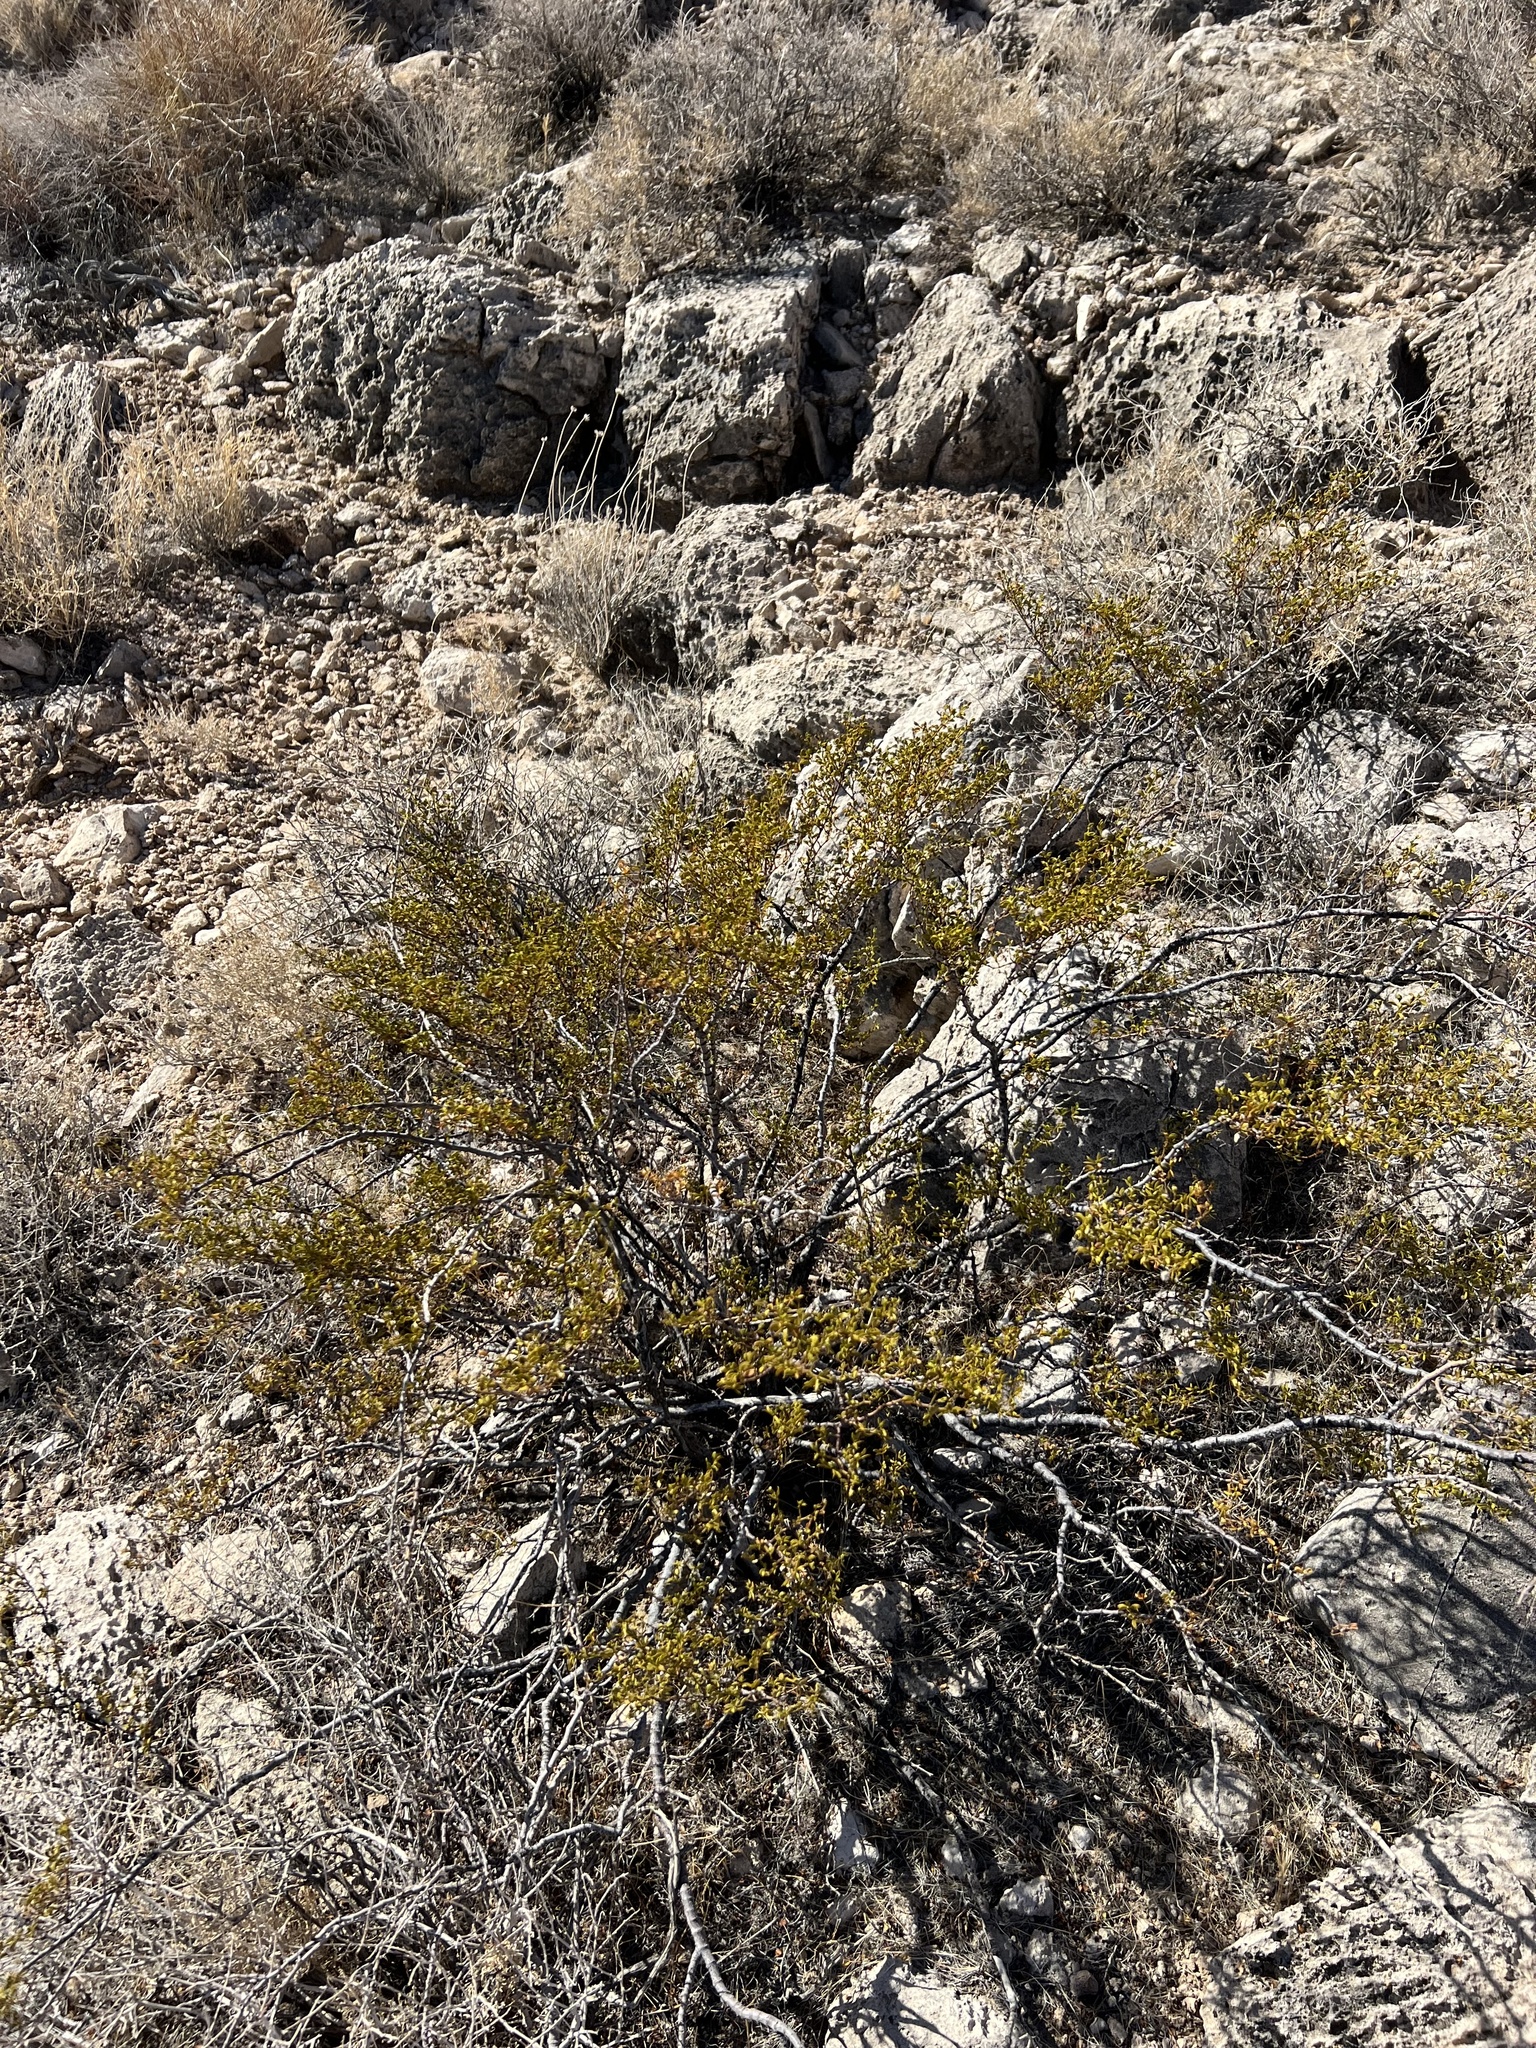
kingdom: Plantae
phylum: Tracheophyta
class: Magnoliopsida
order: Zygophyllales
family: Zygophyllaceae
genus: Larrea
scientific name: Larrea tridentata
